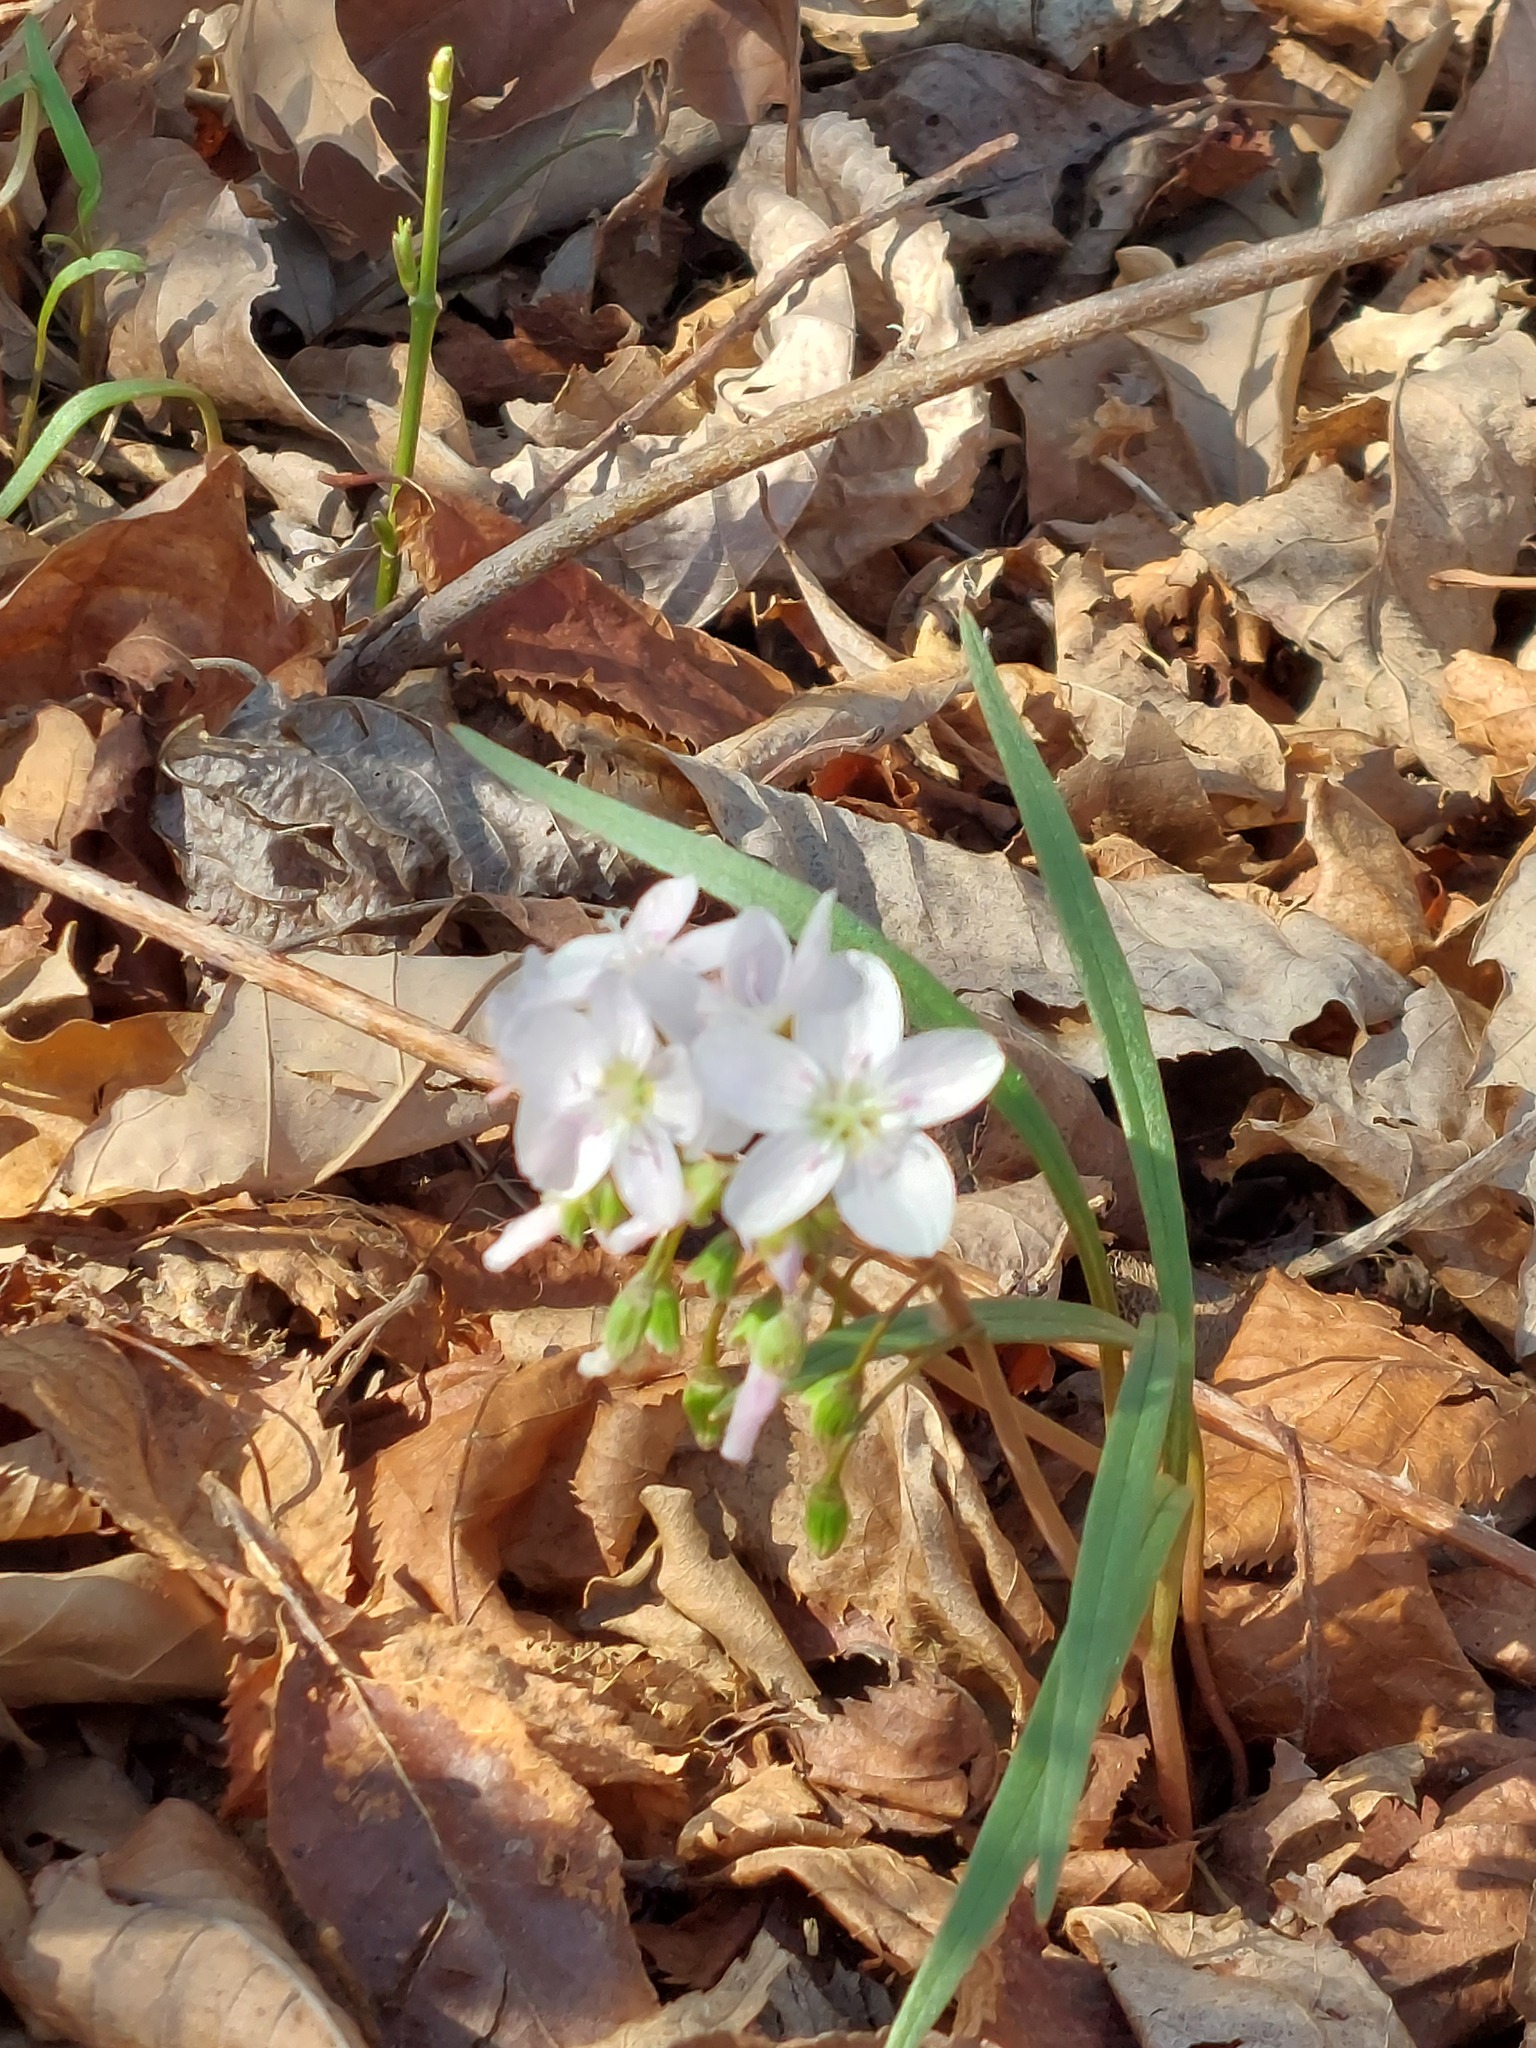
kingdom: Plantae
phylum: Tracheophyta
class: Magnoliopsida
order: Caryophyllales
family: Montiaceae
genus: Claytonia
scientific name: Claytonia virginica
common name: Virginia springbeauty
